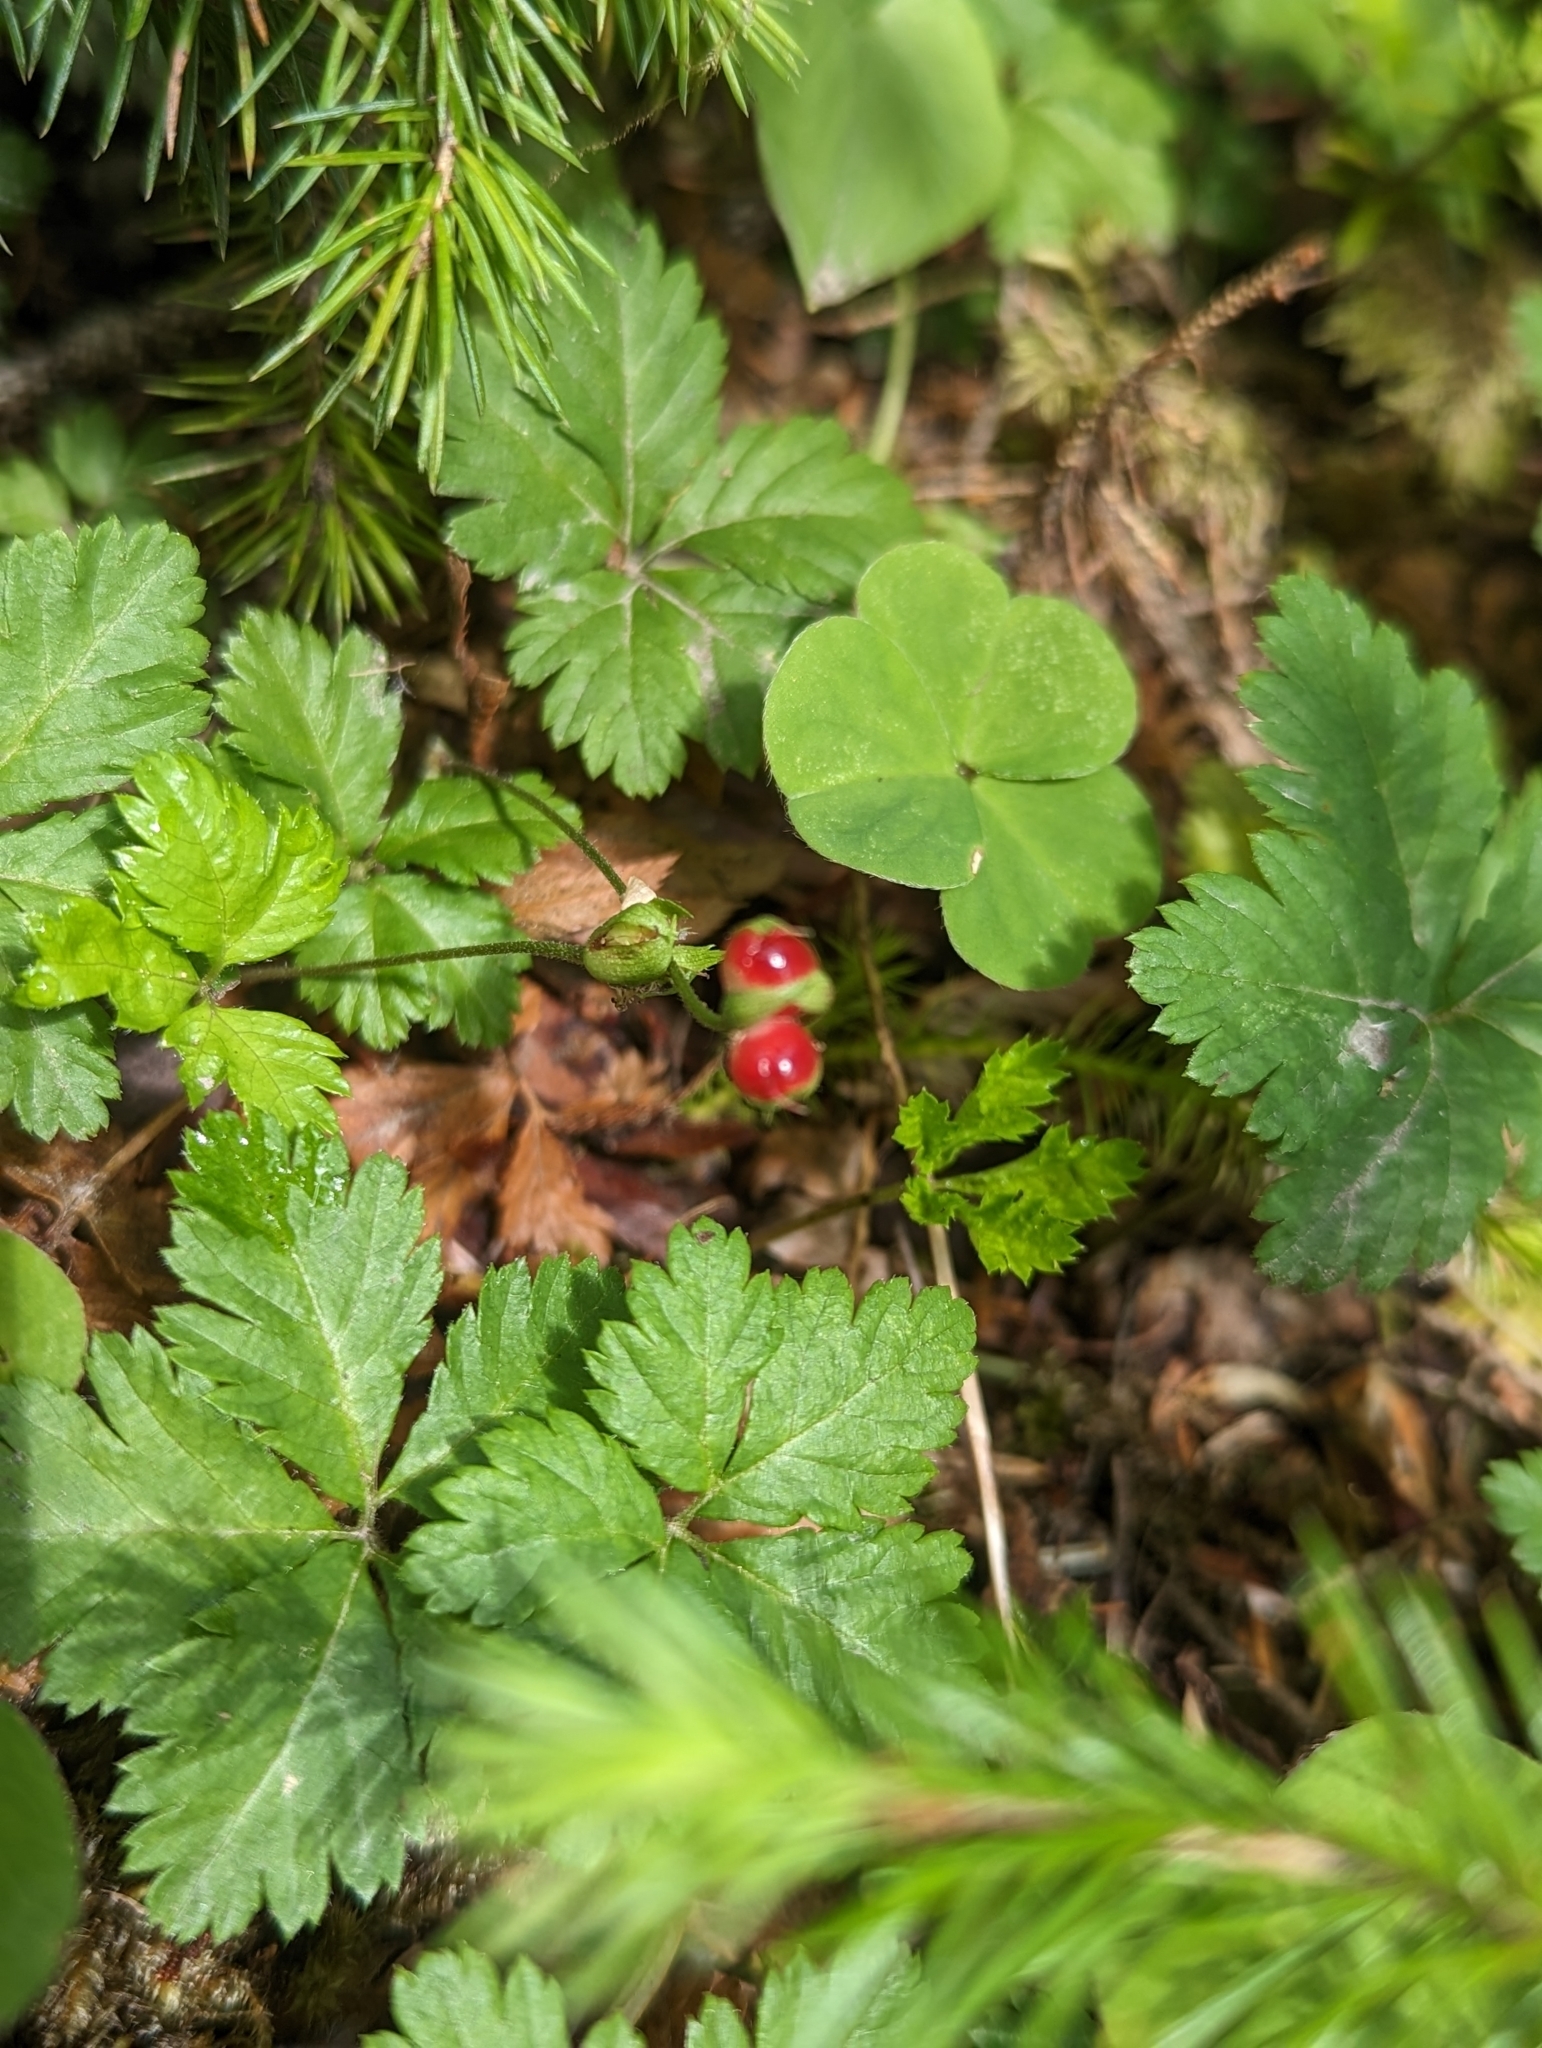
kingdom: Plantae
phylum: Tracheophyta
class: Magnoliopsida
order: Rosales
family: Rosaceae
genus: Rubus
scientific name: Rubus pedatus
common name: Creeping raspberry
